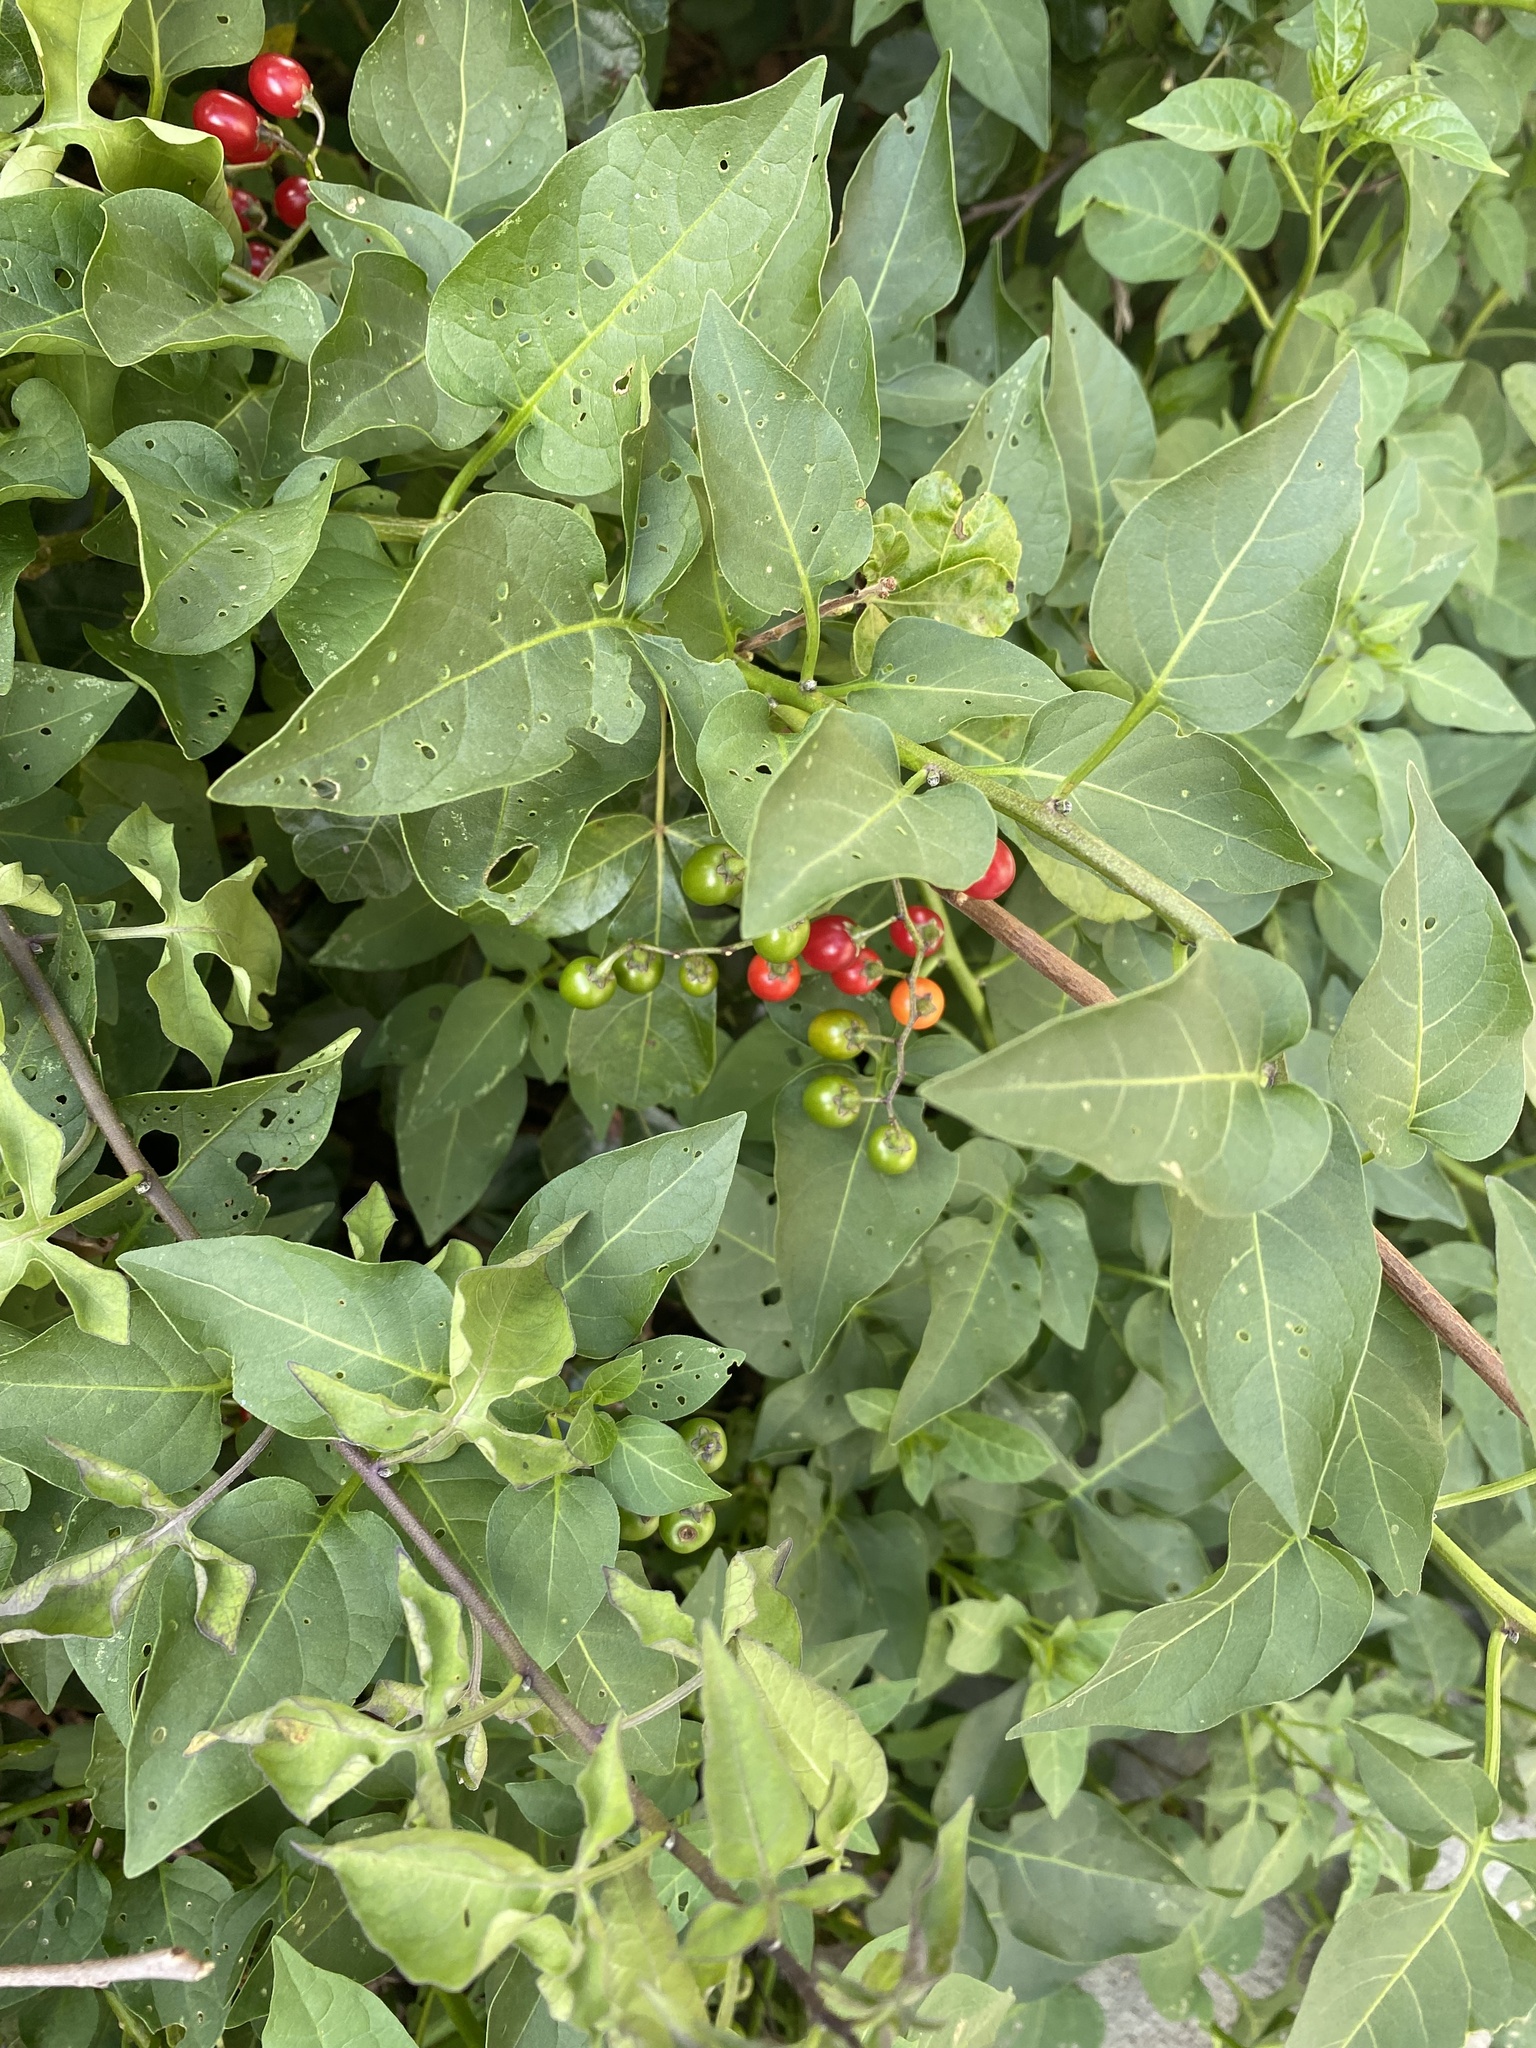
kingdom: Plantae
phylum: Tracheophyta
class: Magnoliopsida
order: Solanales
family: Solanaceae
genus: Solanum
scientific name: Solanum dulcamara
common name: Climbing nightshade
